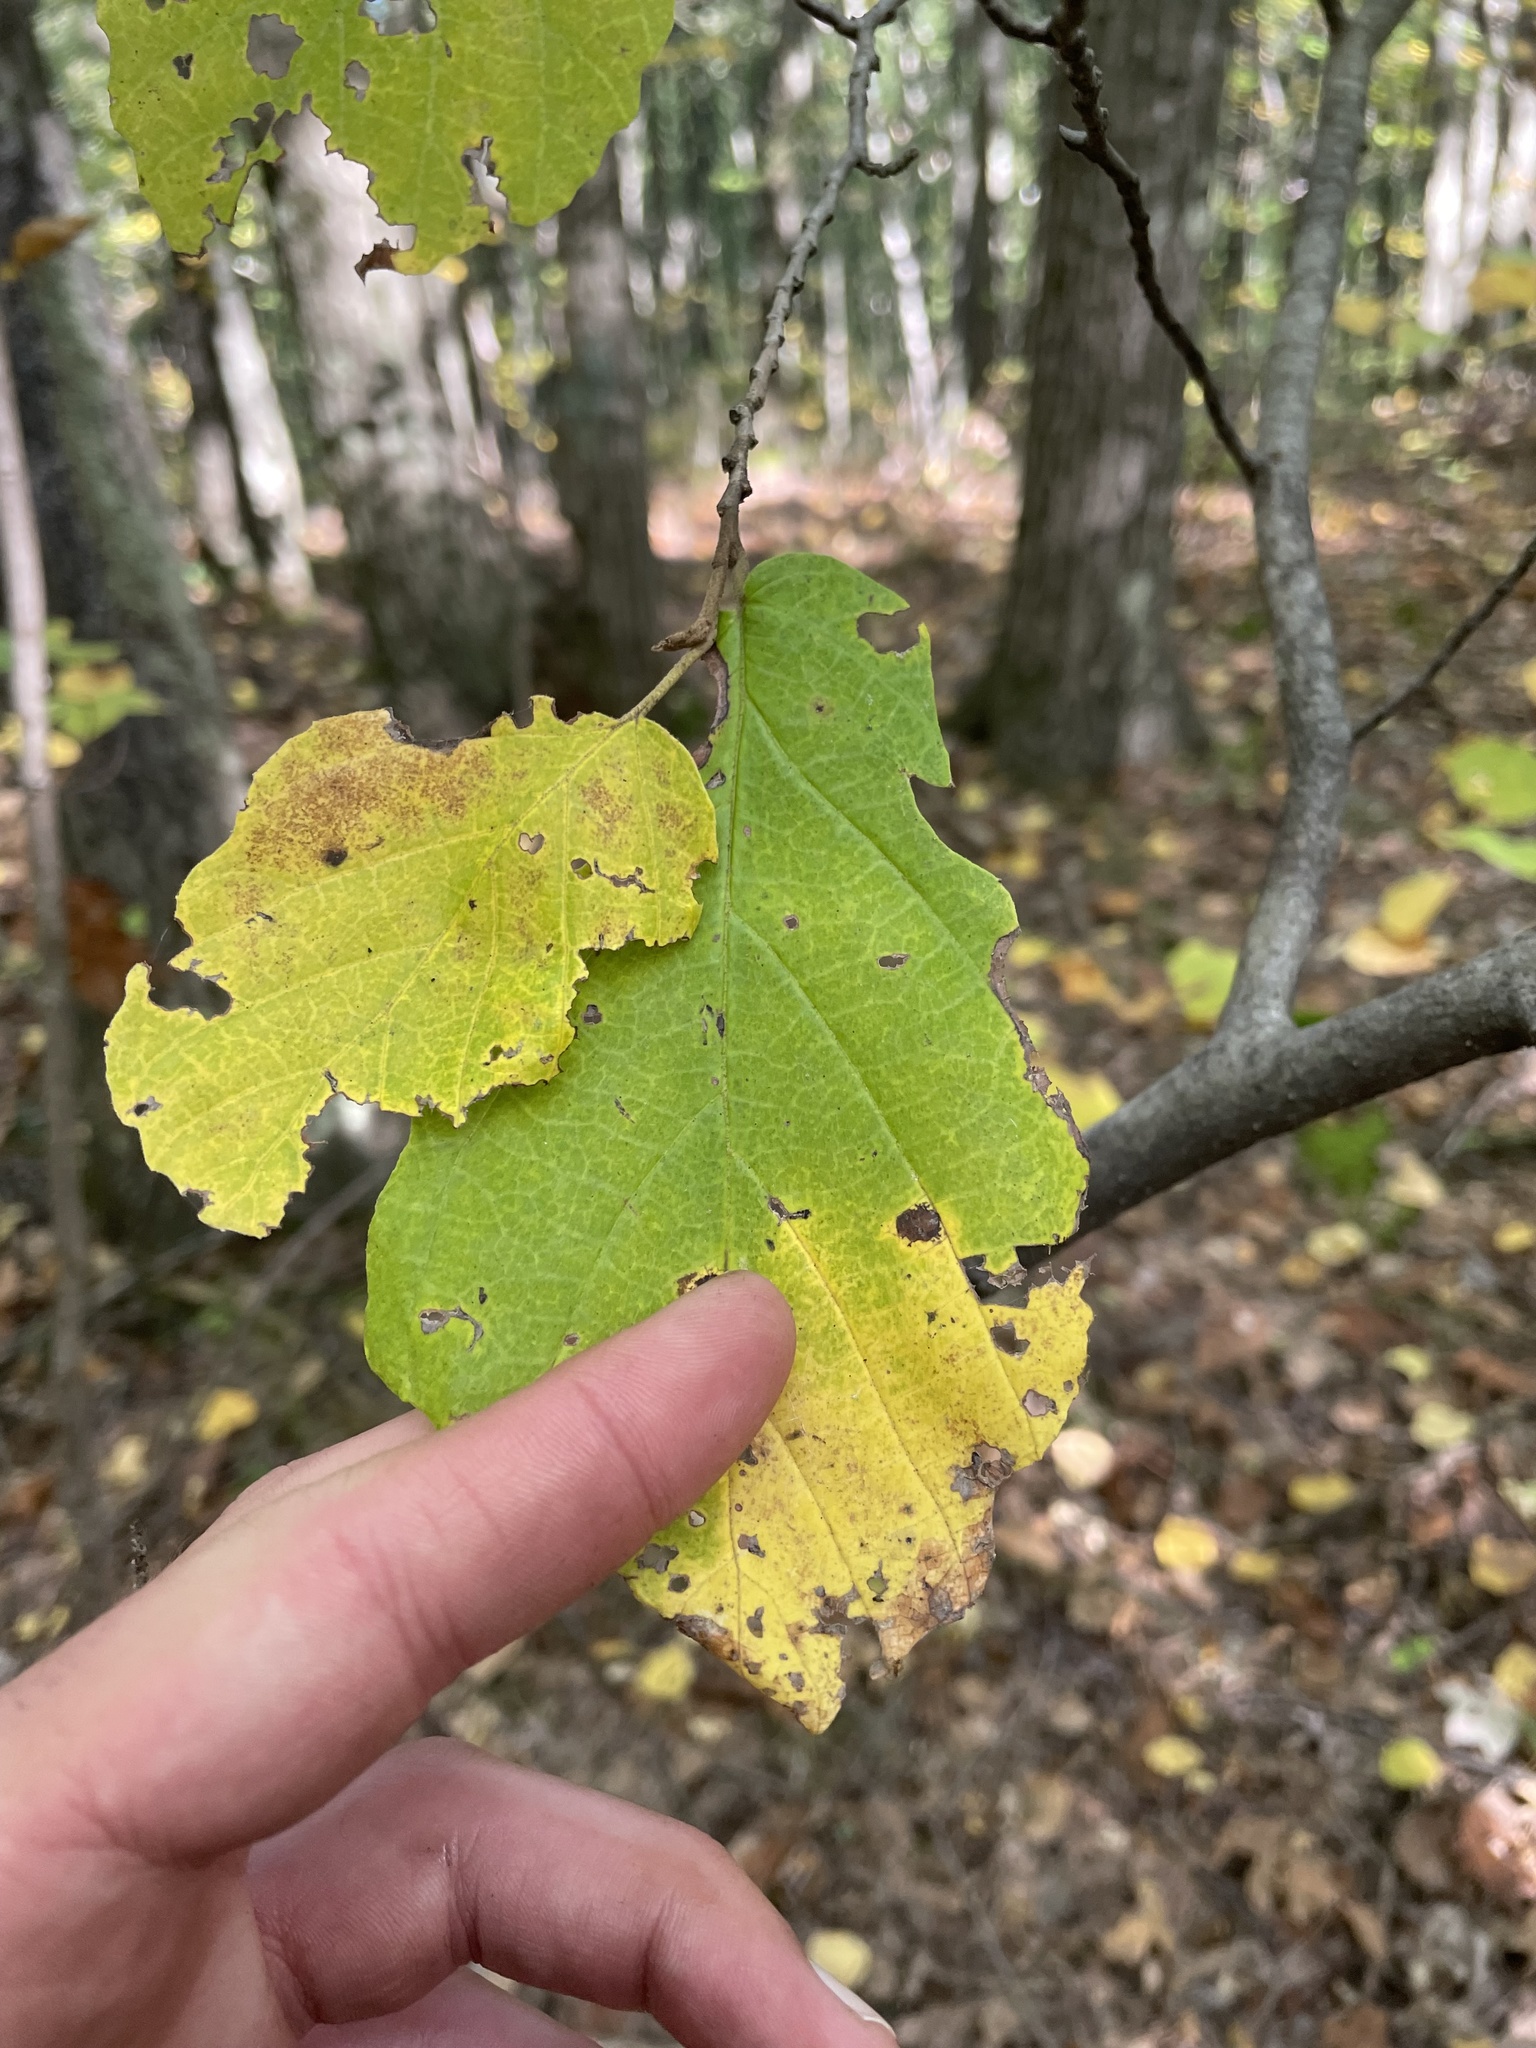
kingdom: Plantae
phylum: Tracheophyta
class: Magnoliopsida
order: Saxifragales
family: Hamamelidaceae
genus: Hamamelis
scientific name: Hamamelis virginiana
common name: Witch-hazel
